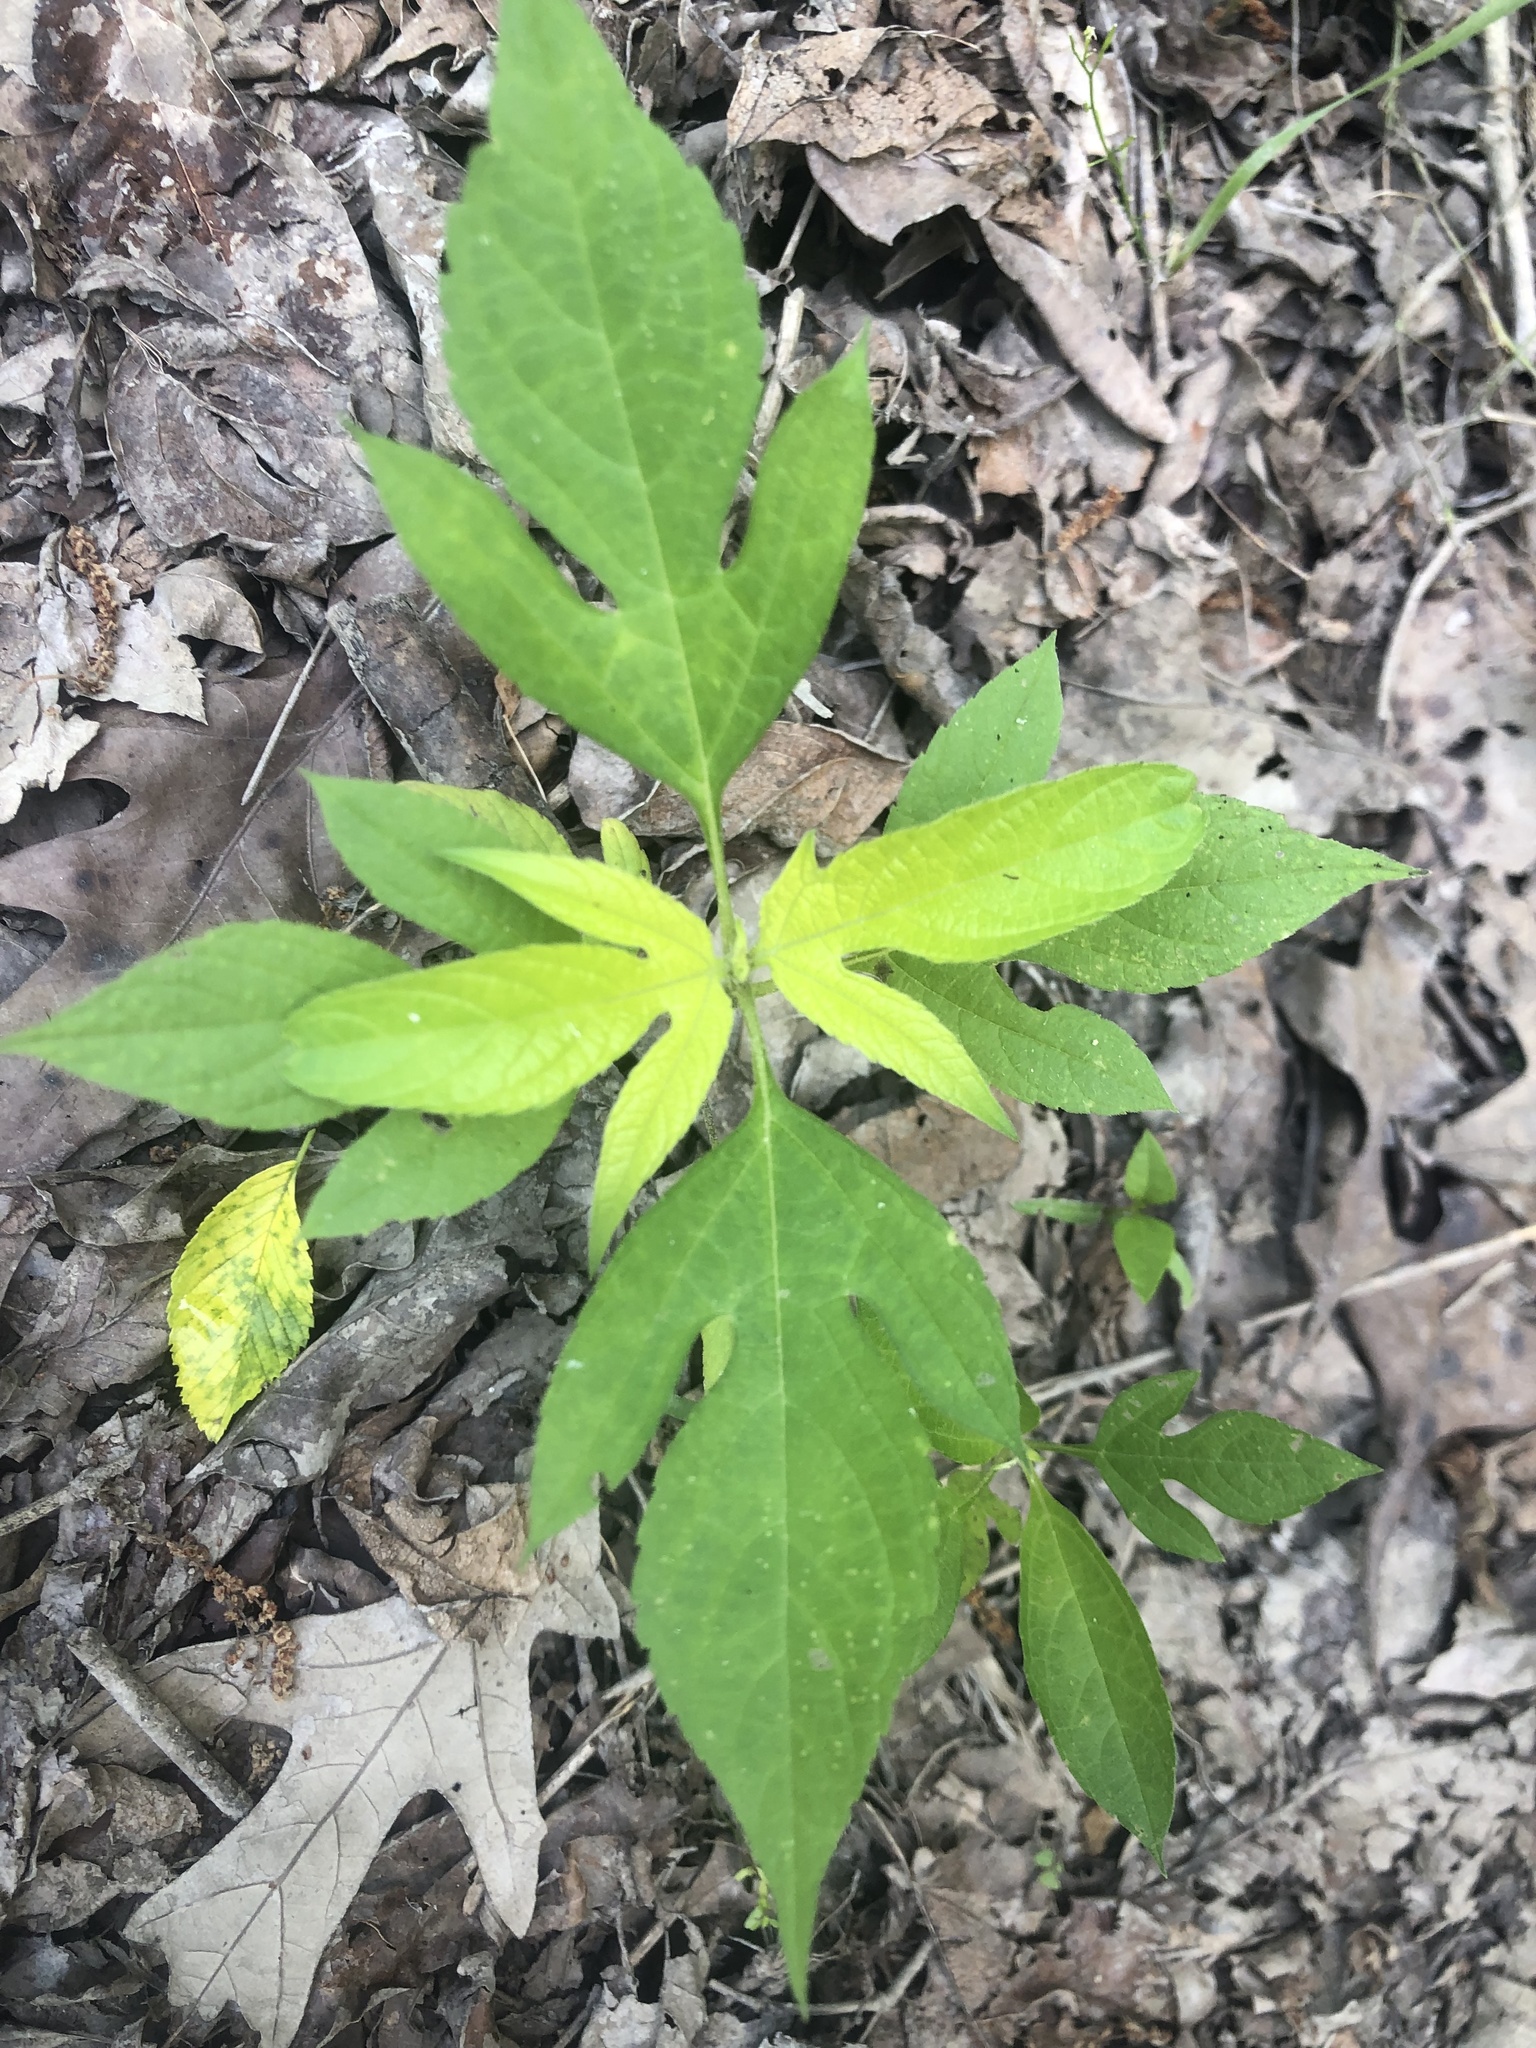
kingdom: Plantae
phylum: Tracheophyta
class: Magnoliopsida
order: Asterales
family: Asteraceae
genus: Ambrosia
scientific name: Ambrosia trifida
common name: Giant ragweed
